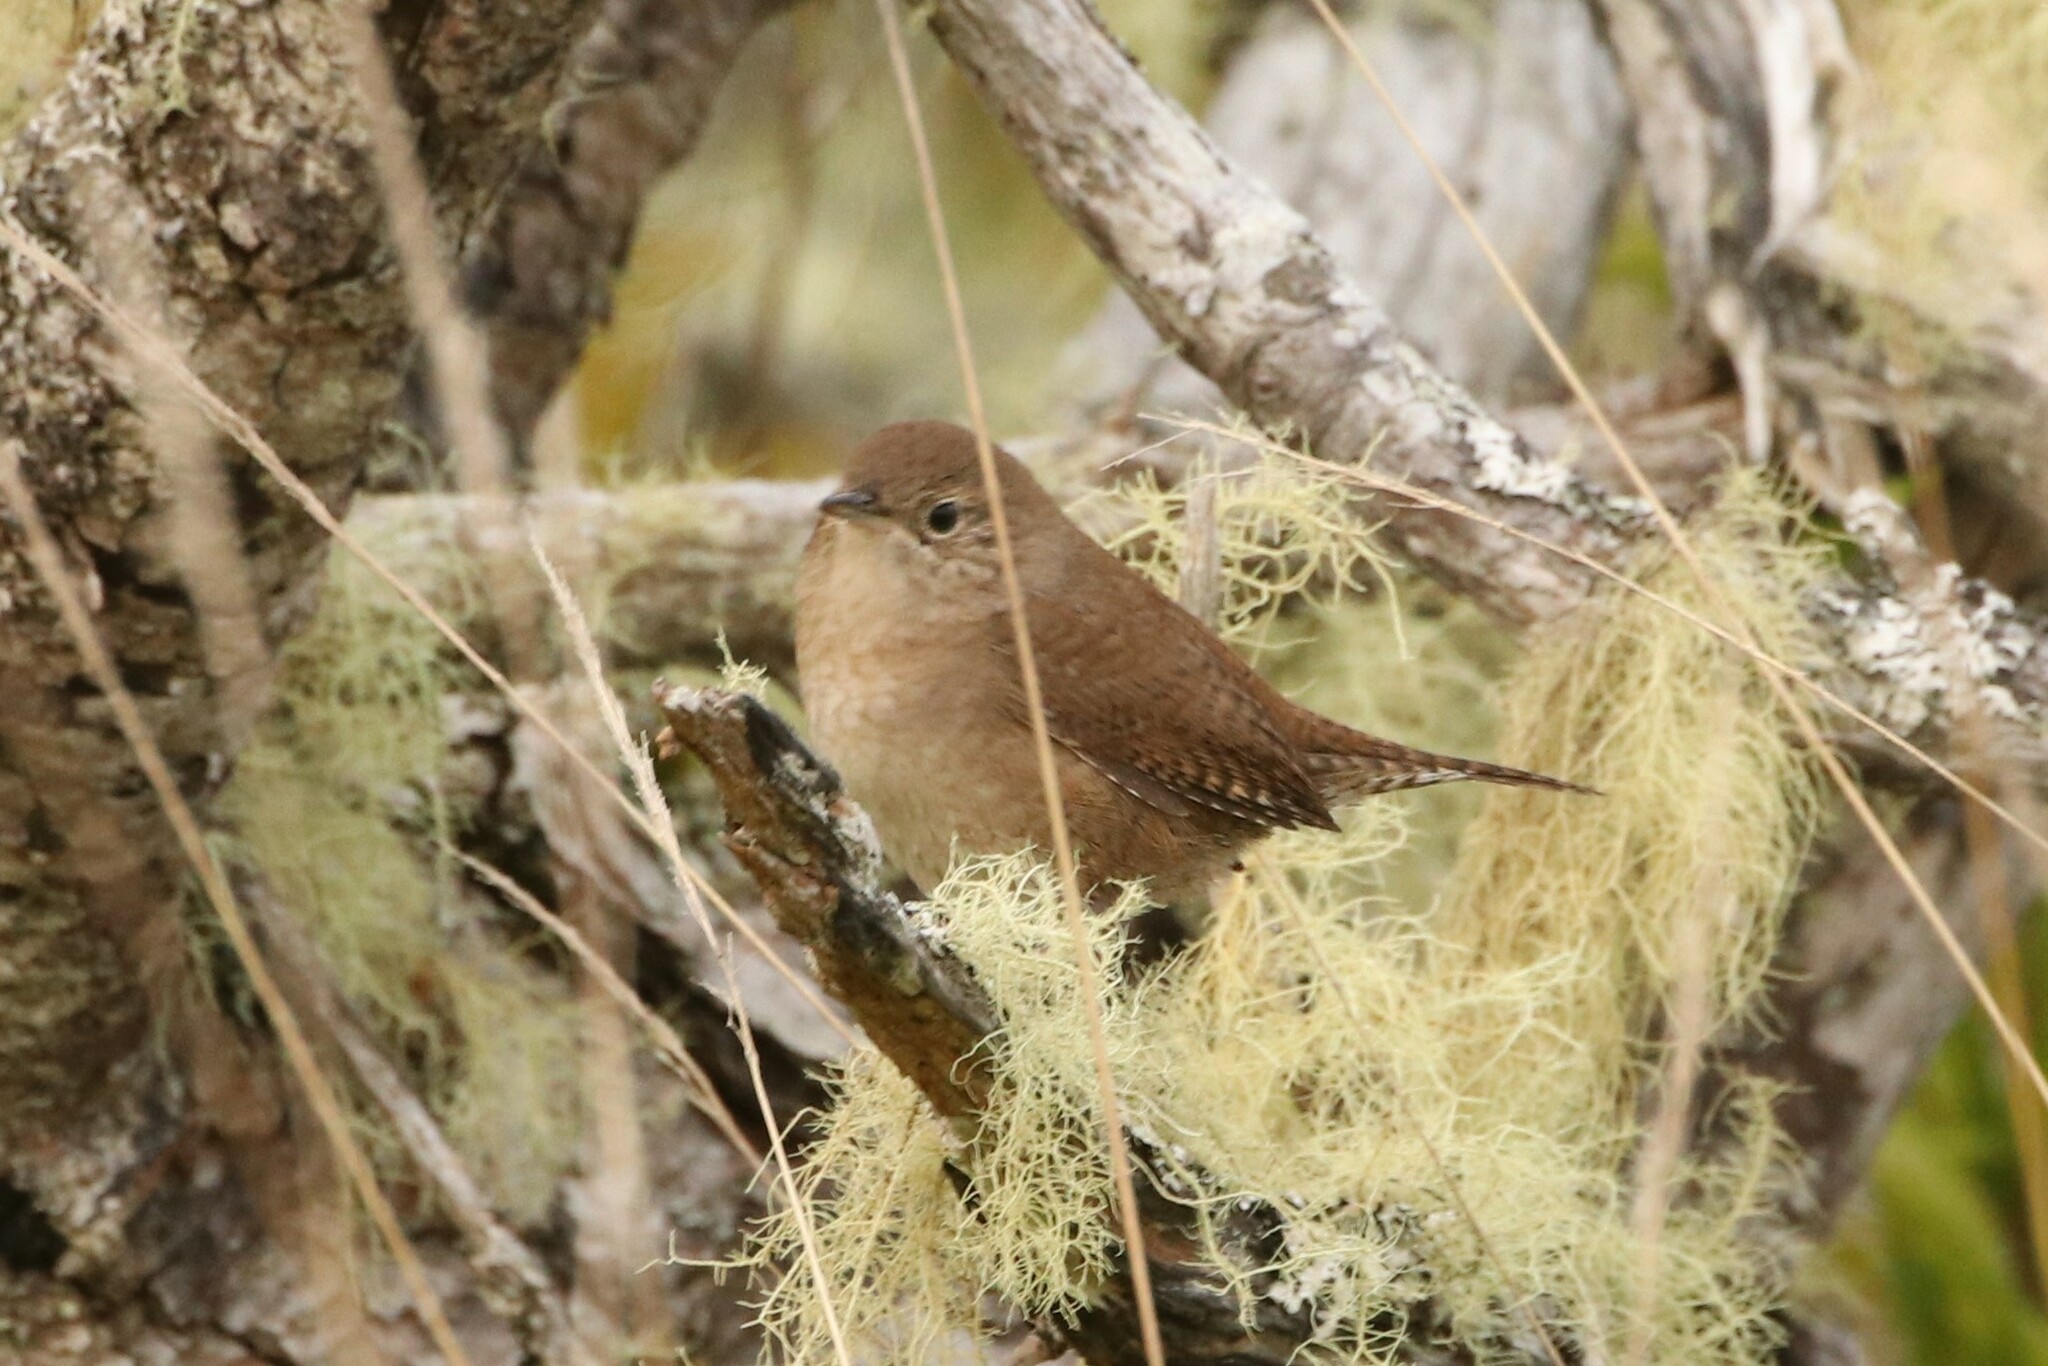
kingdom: Animalia
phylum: Chordata
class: Aves
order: Passeriformes
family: Troglodytidae
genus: Troglodytes
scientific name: Troglodytes aedon
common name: House wren
